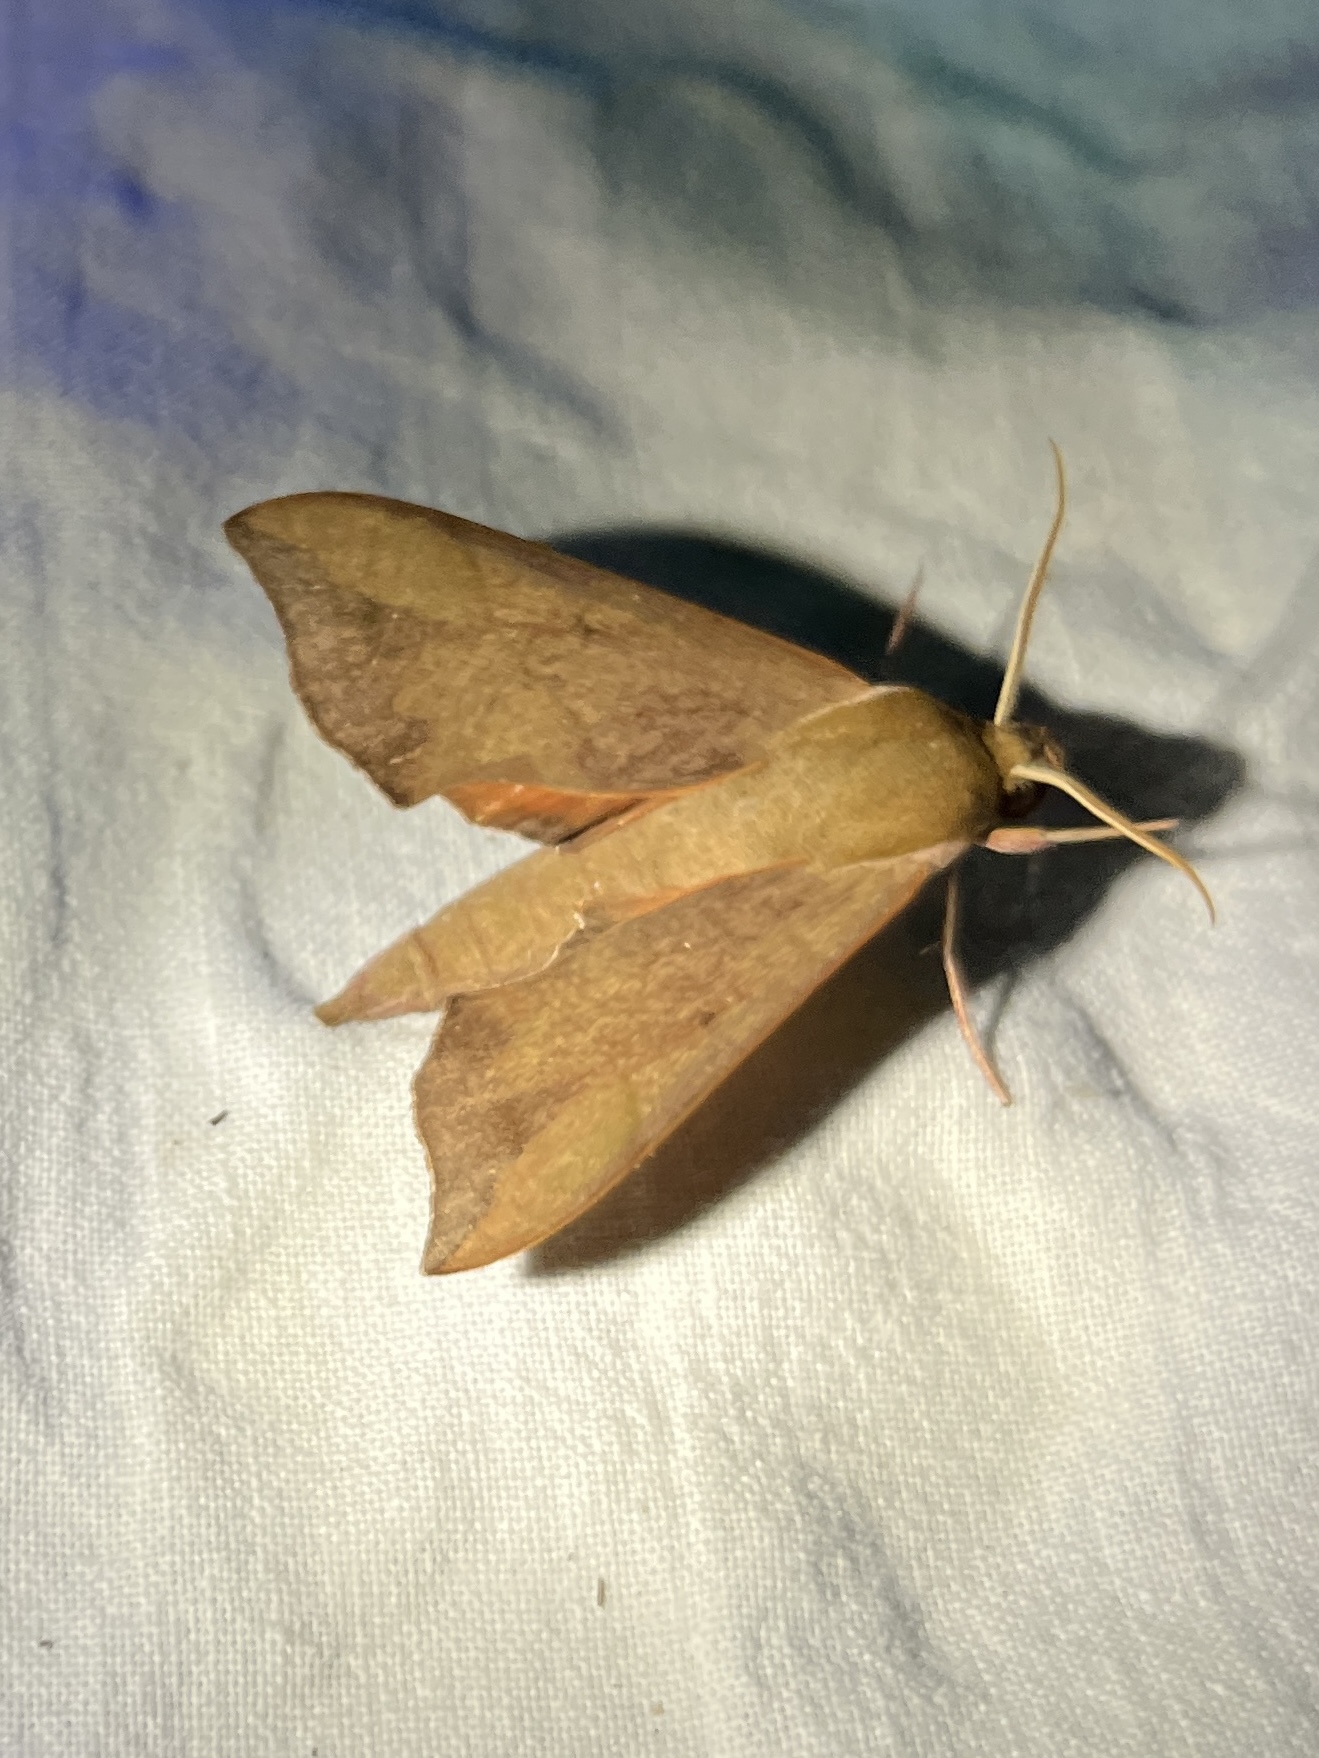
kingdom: Animalia
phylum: Arthropoda
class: Insecta
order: Lepidoptera
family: Sphingidae
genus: Darapsa
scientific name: Darapsa myron
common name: Hog sphinx
